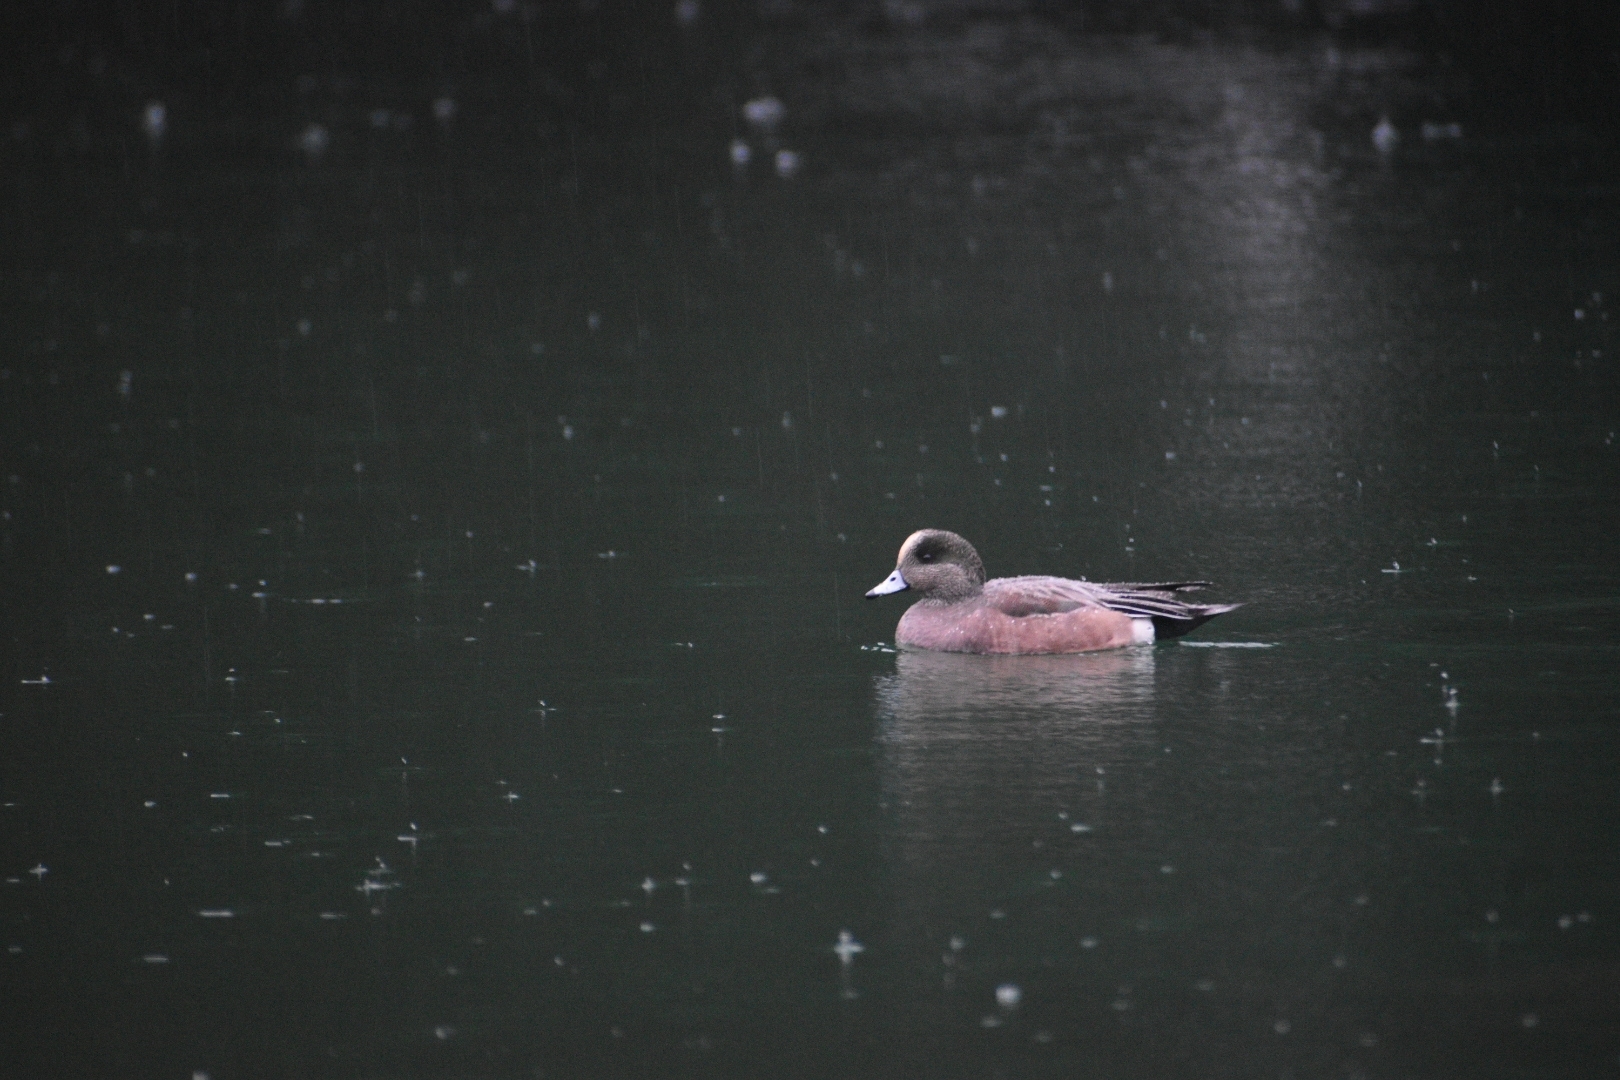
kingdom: Animalia
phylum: Chordata
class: Aves
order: Anseriformes
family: Anatidae
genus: Mareca
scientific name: Mareca americana
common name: American wigeon
